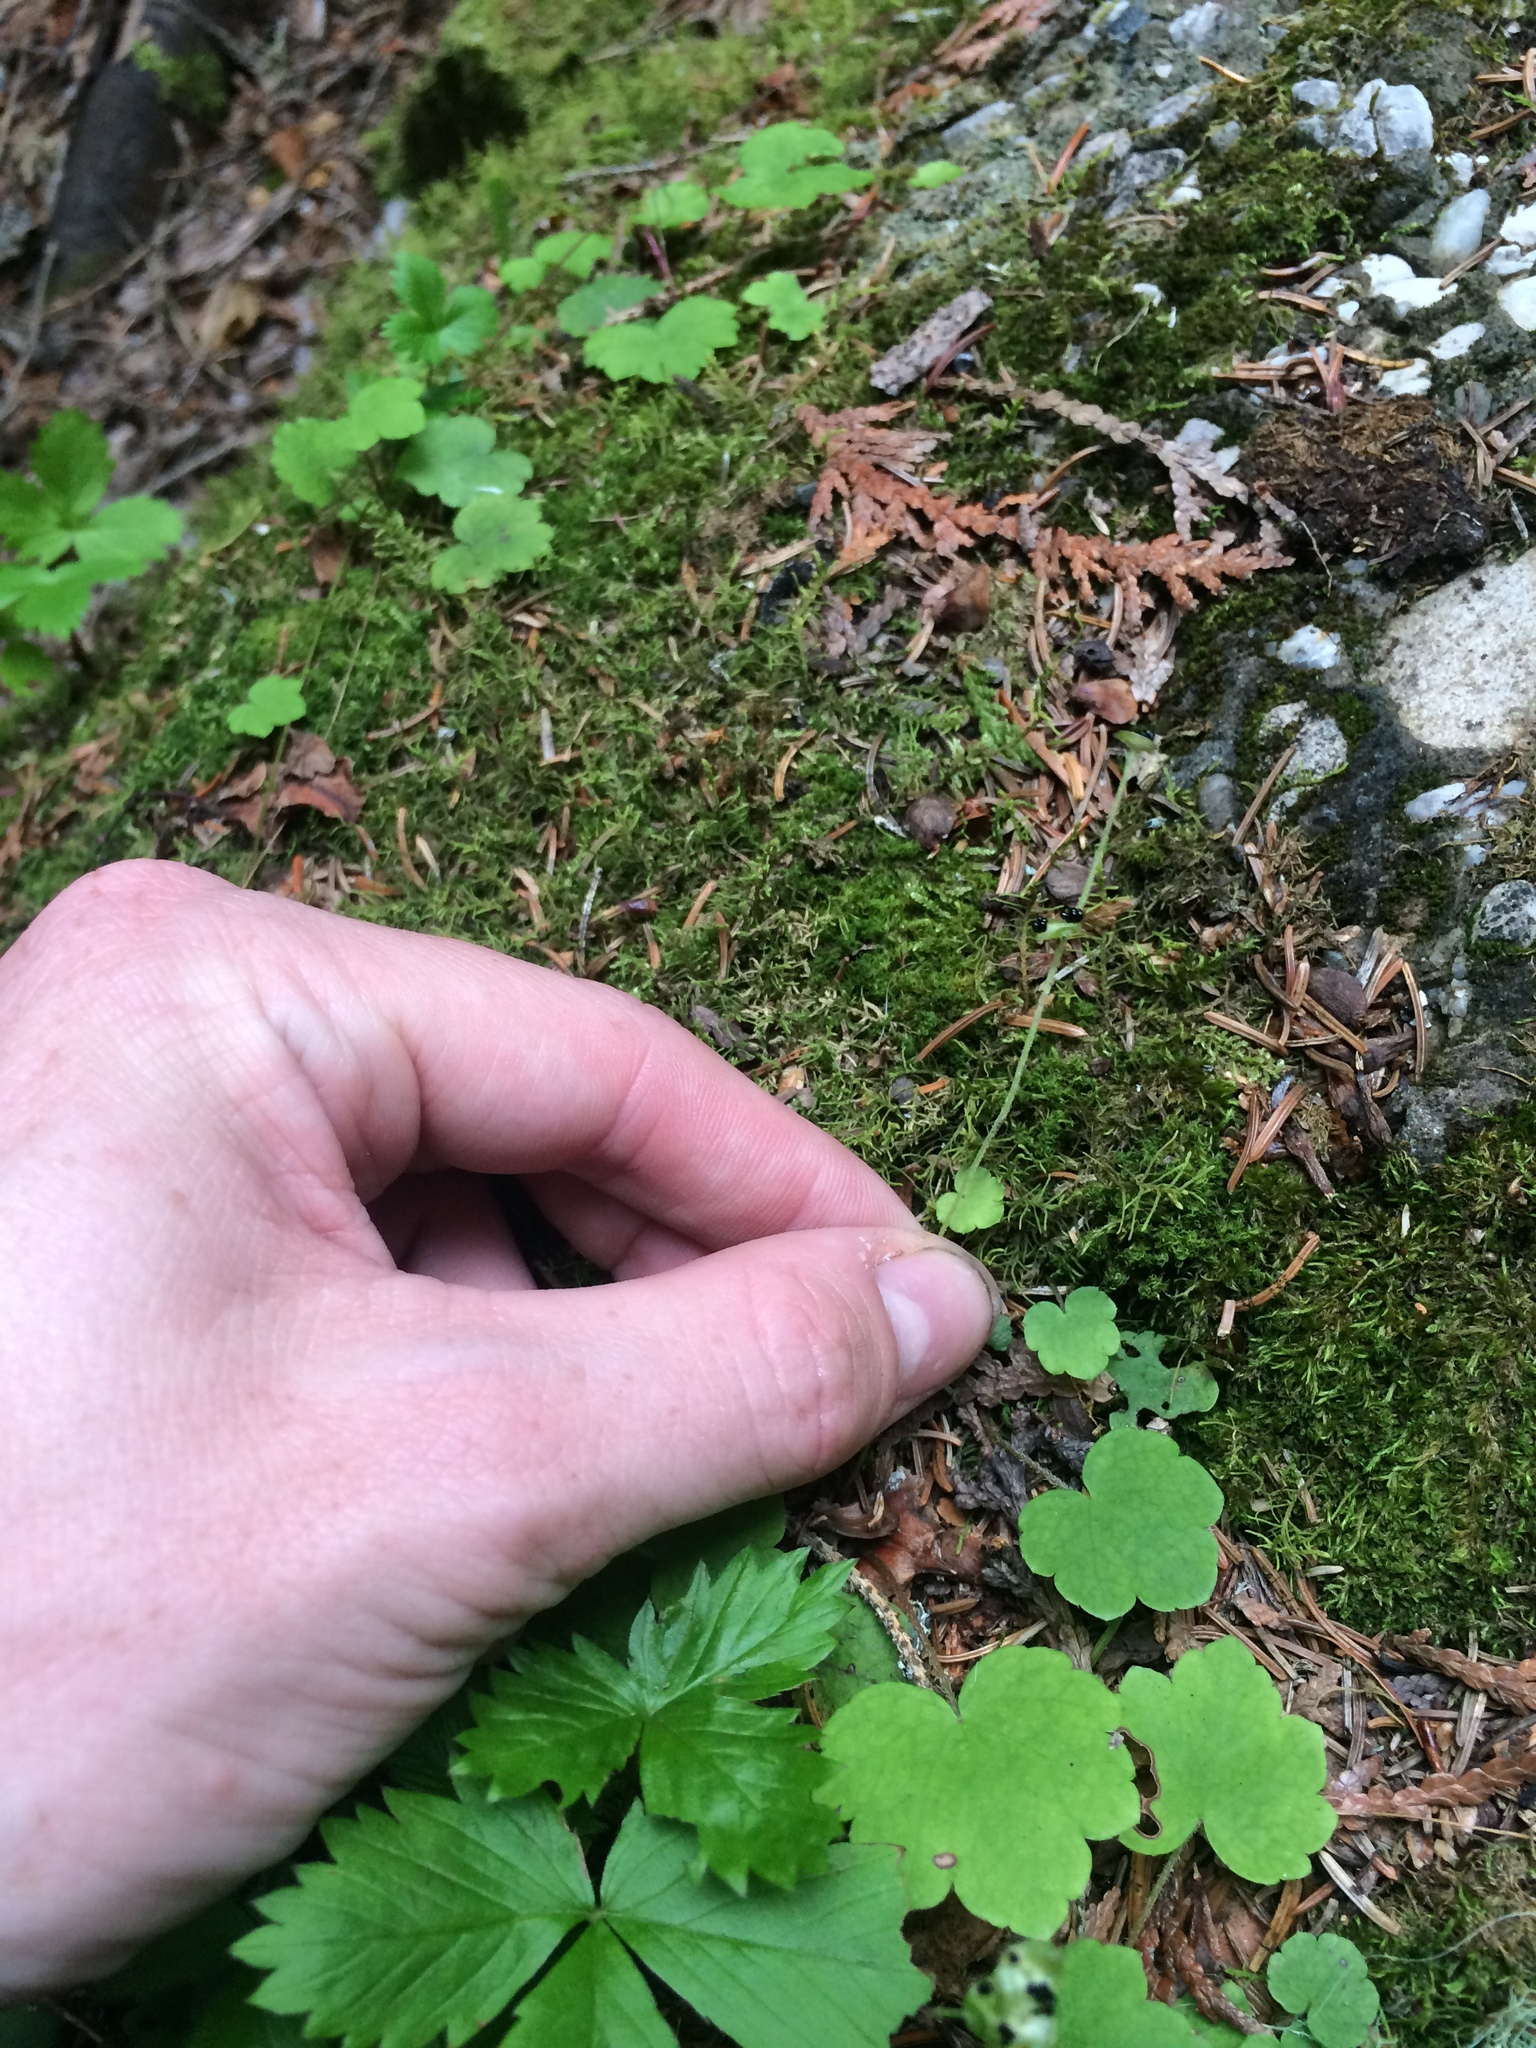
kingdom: Plantae
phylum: Tracheophyta
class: Magnoliopsida
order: Saxifragales
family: Saxifragaceae
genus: Mitella
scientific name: Mitella nuda
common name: Bare-stemmed bishop's-cap
